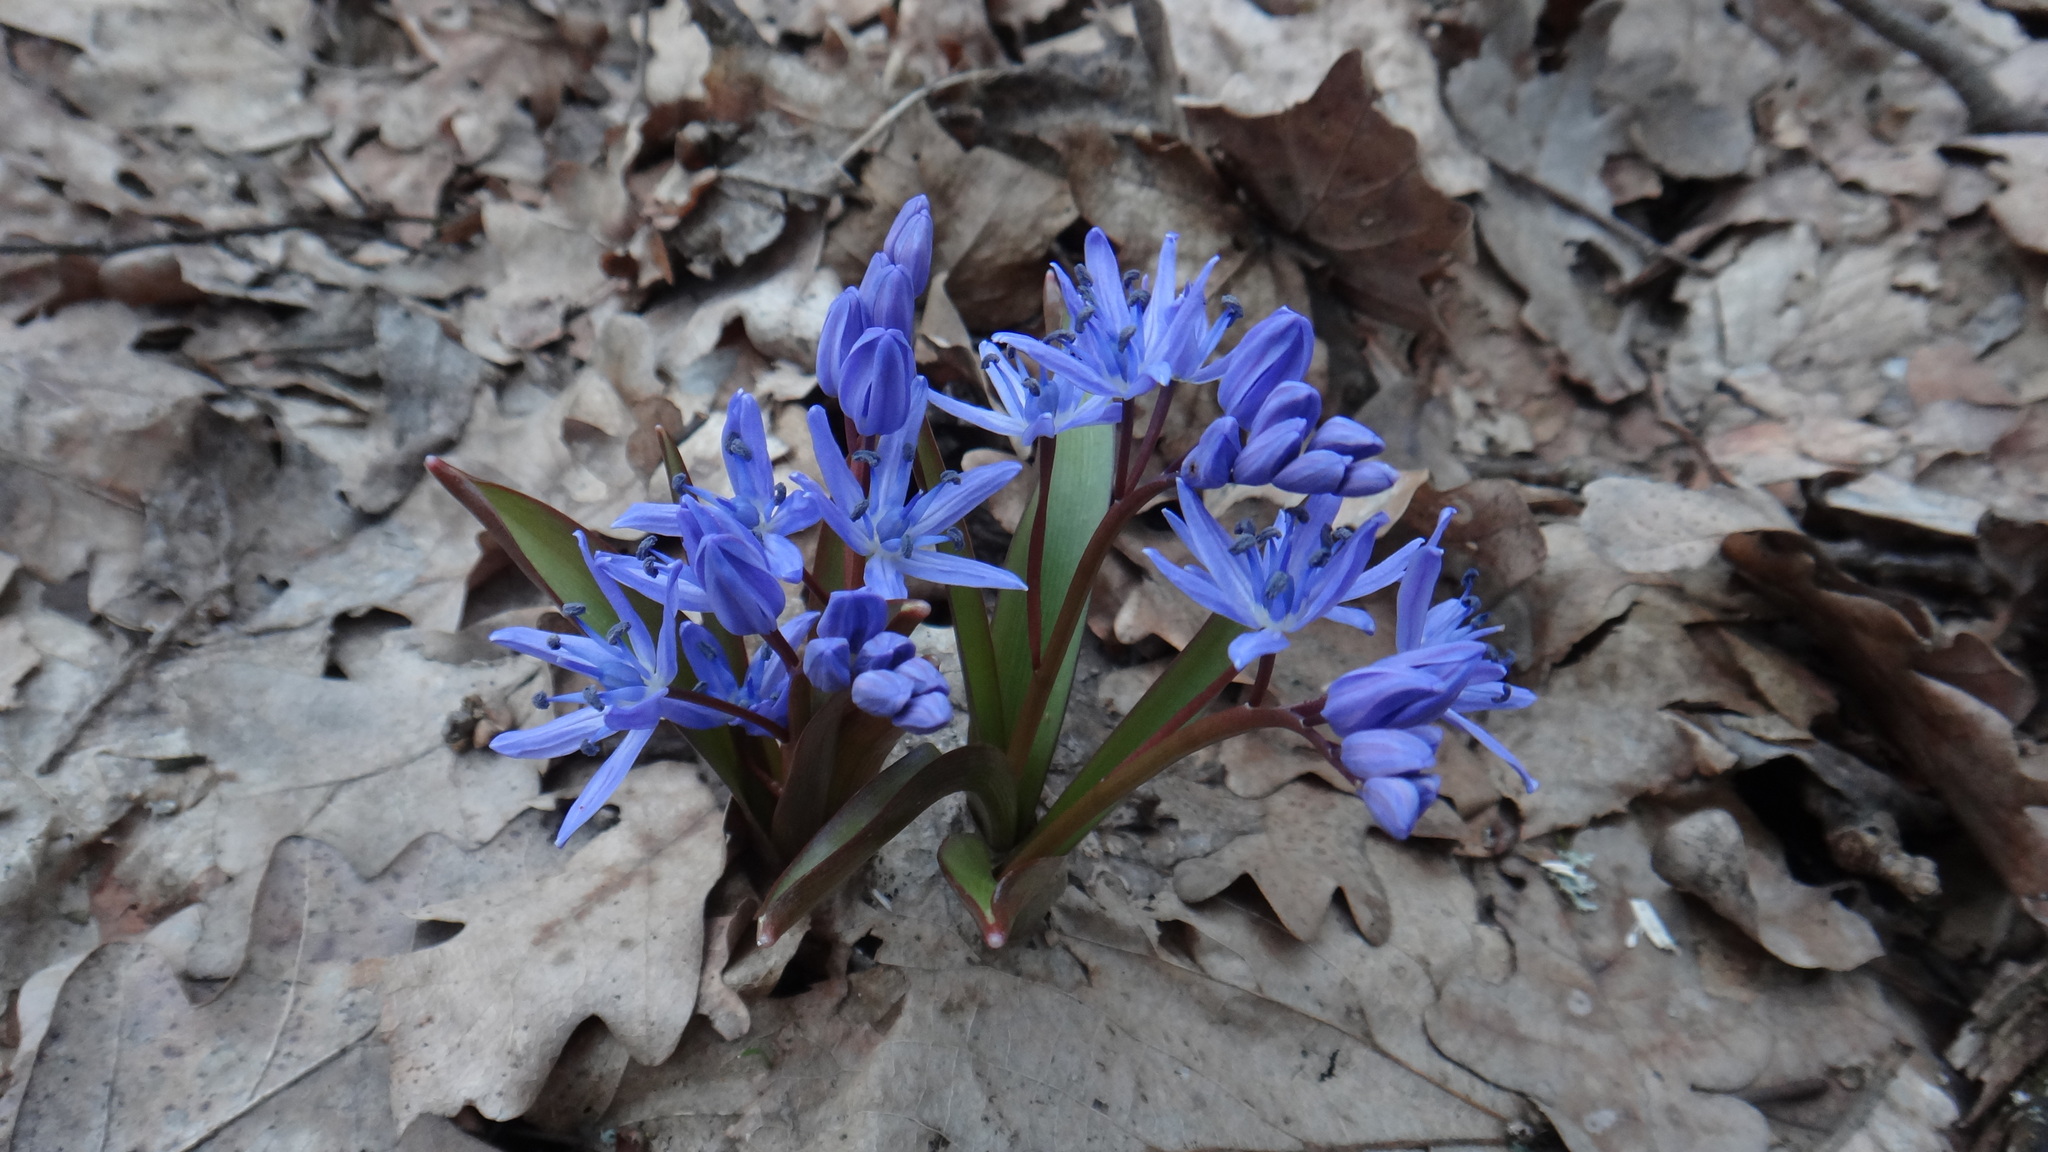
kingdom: Plantae
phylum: Tracheophyta
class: Liliopsida
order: Asparagales
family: Asparagaceae
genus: Scilla
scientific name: Scilla bifolia
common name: Alpine squill
